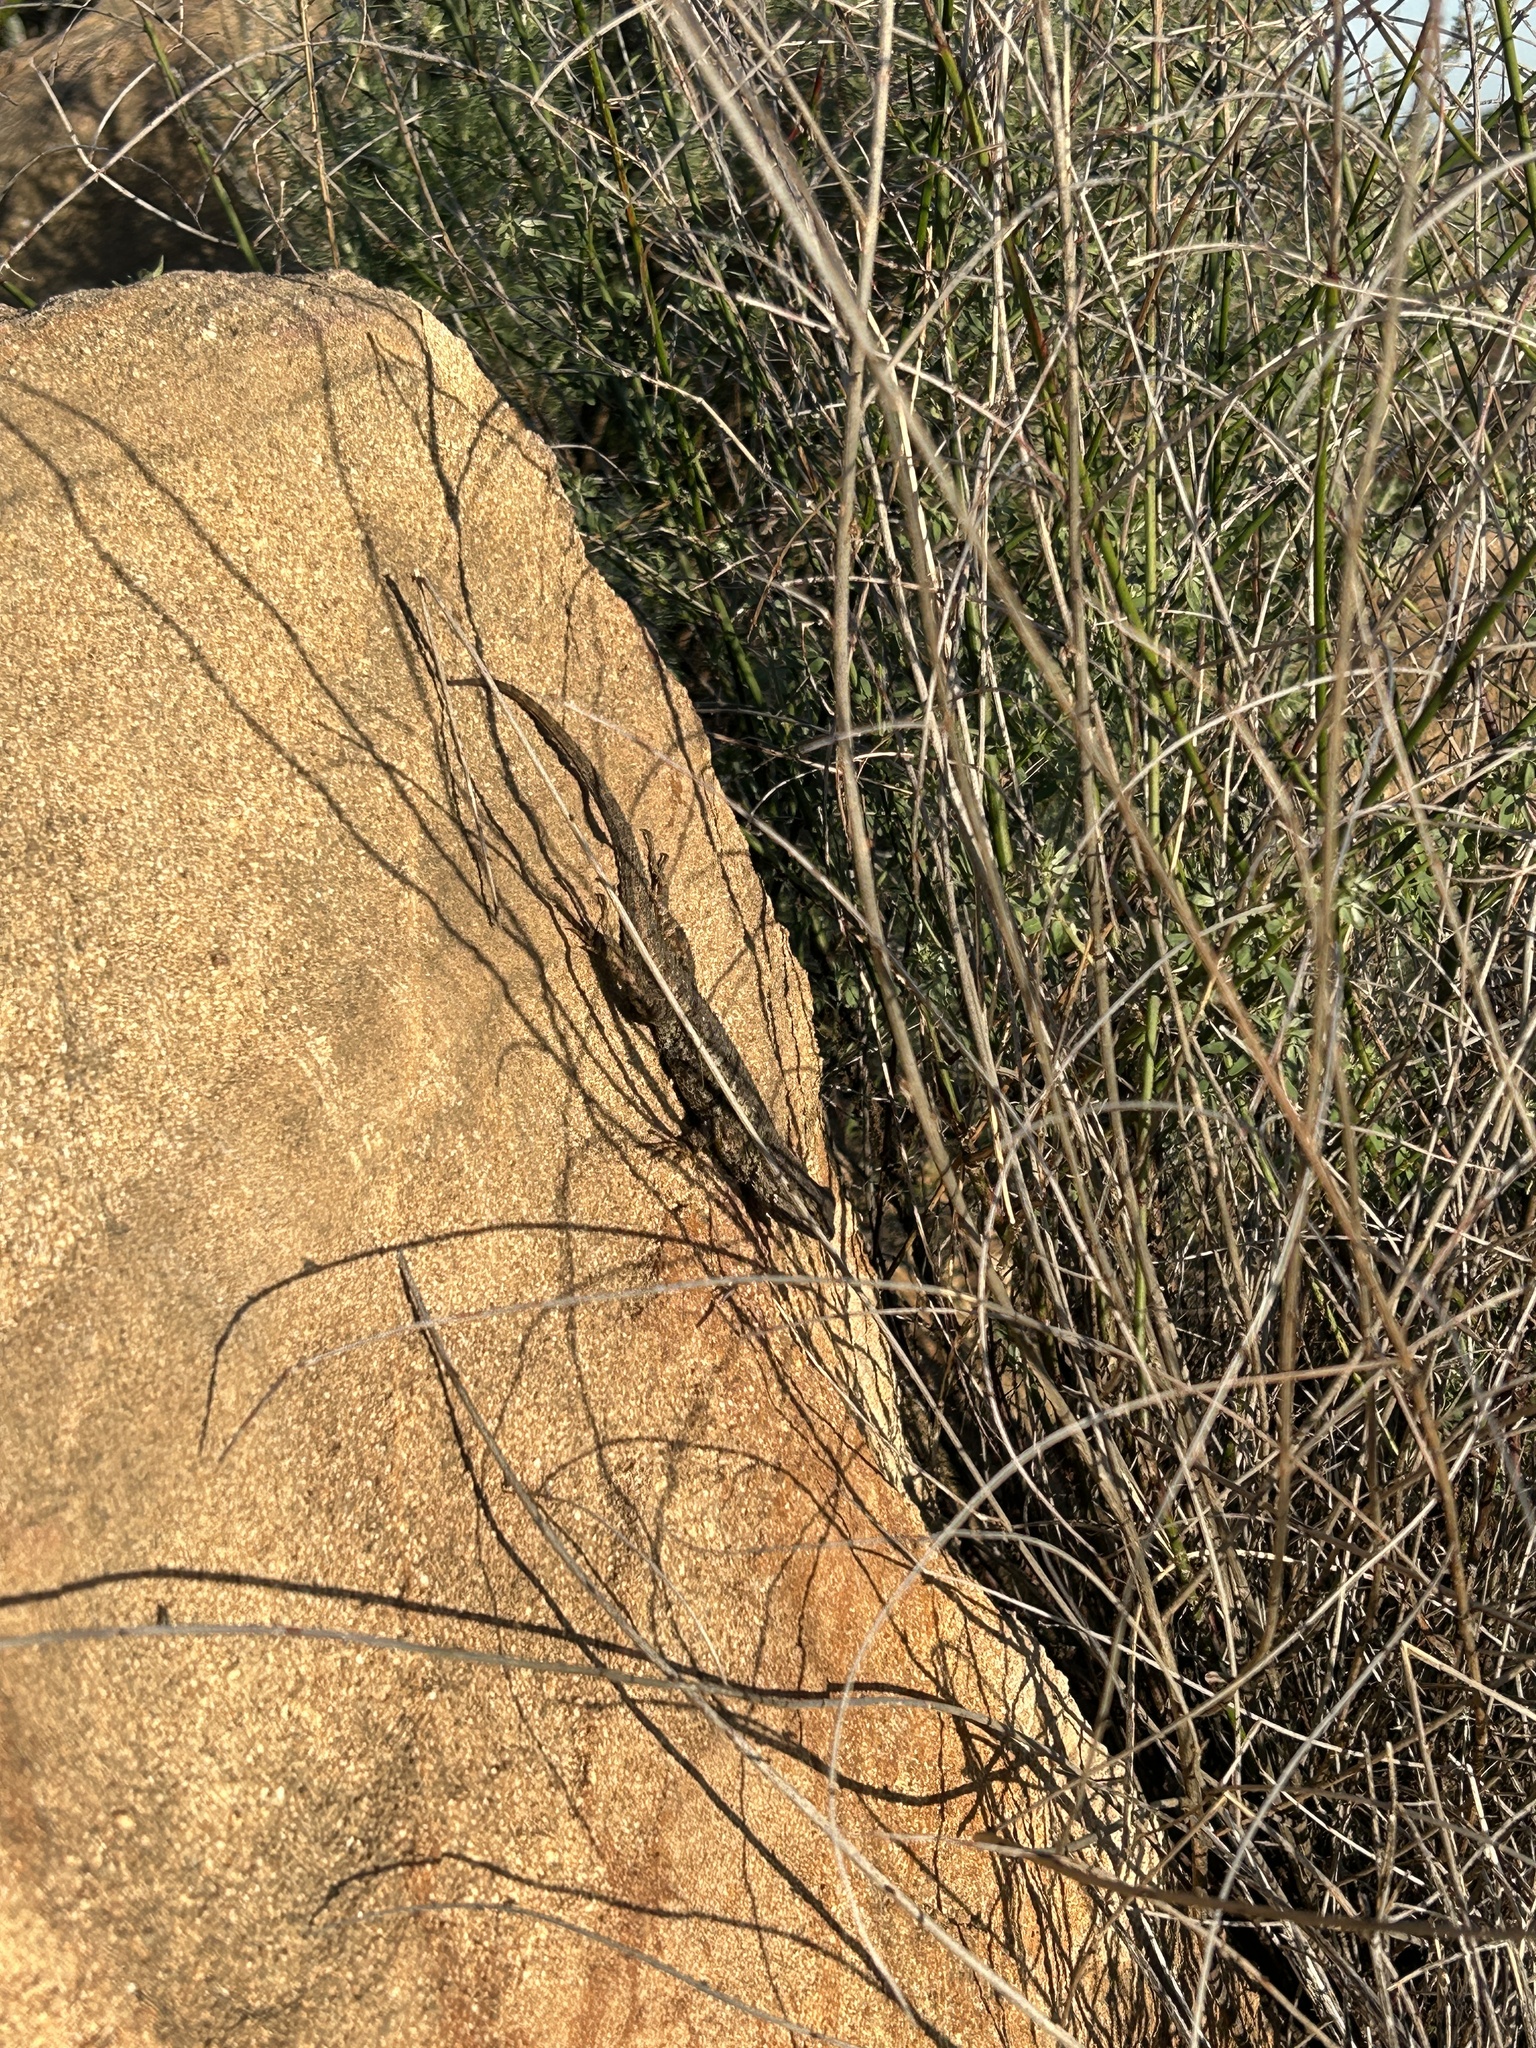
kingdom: Animalia
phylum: Chordata
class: Squamata
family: Phrynosomatidae
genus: Sceloporus
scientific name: Sceloporus occidentalis
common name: Western fence lizard
